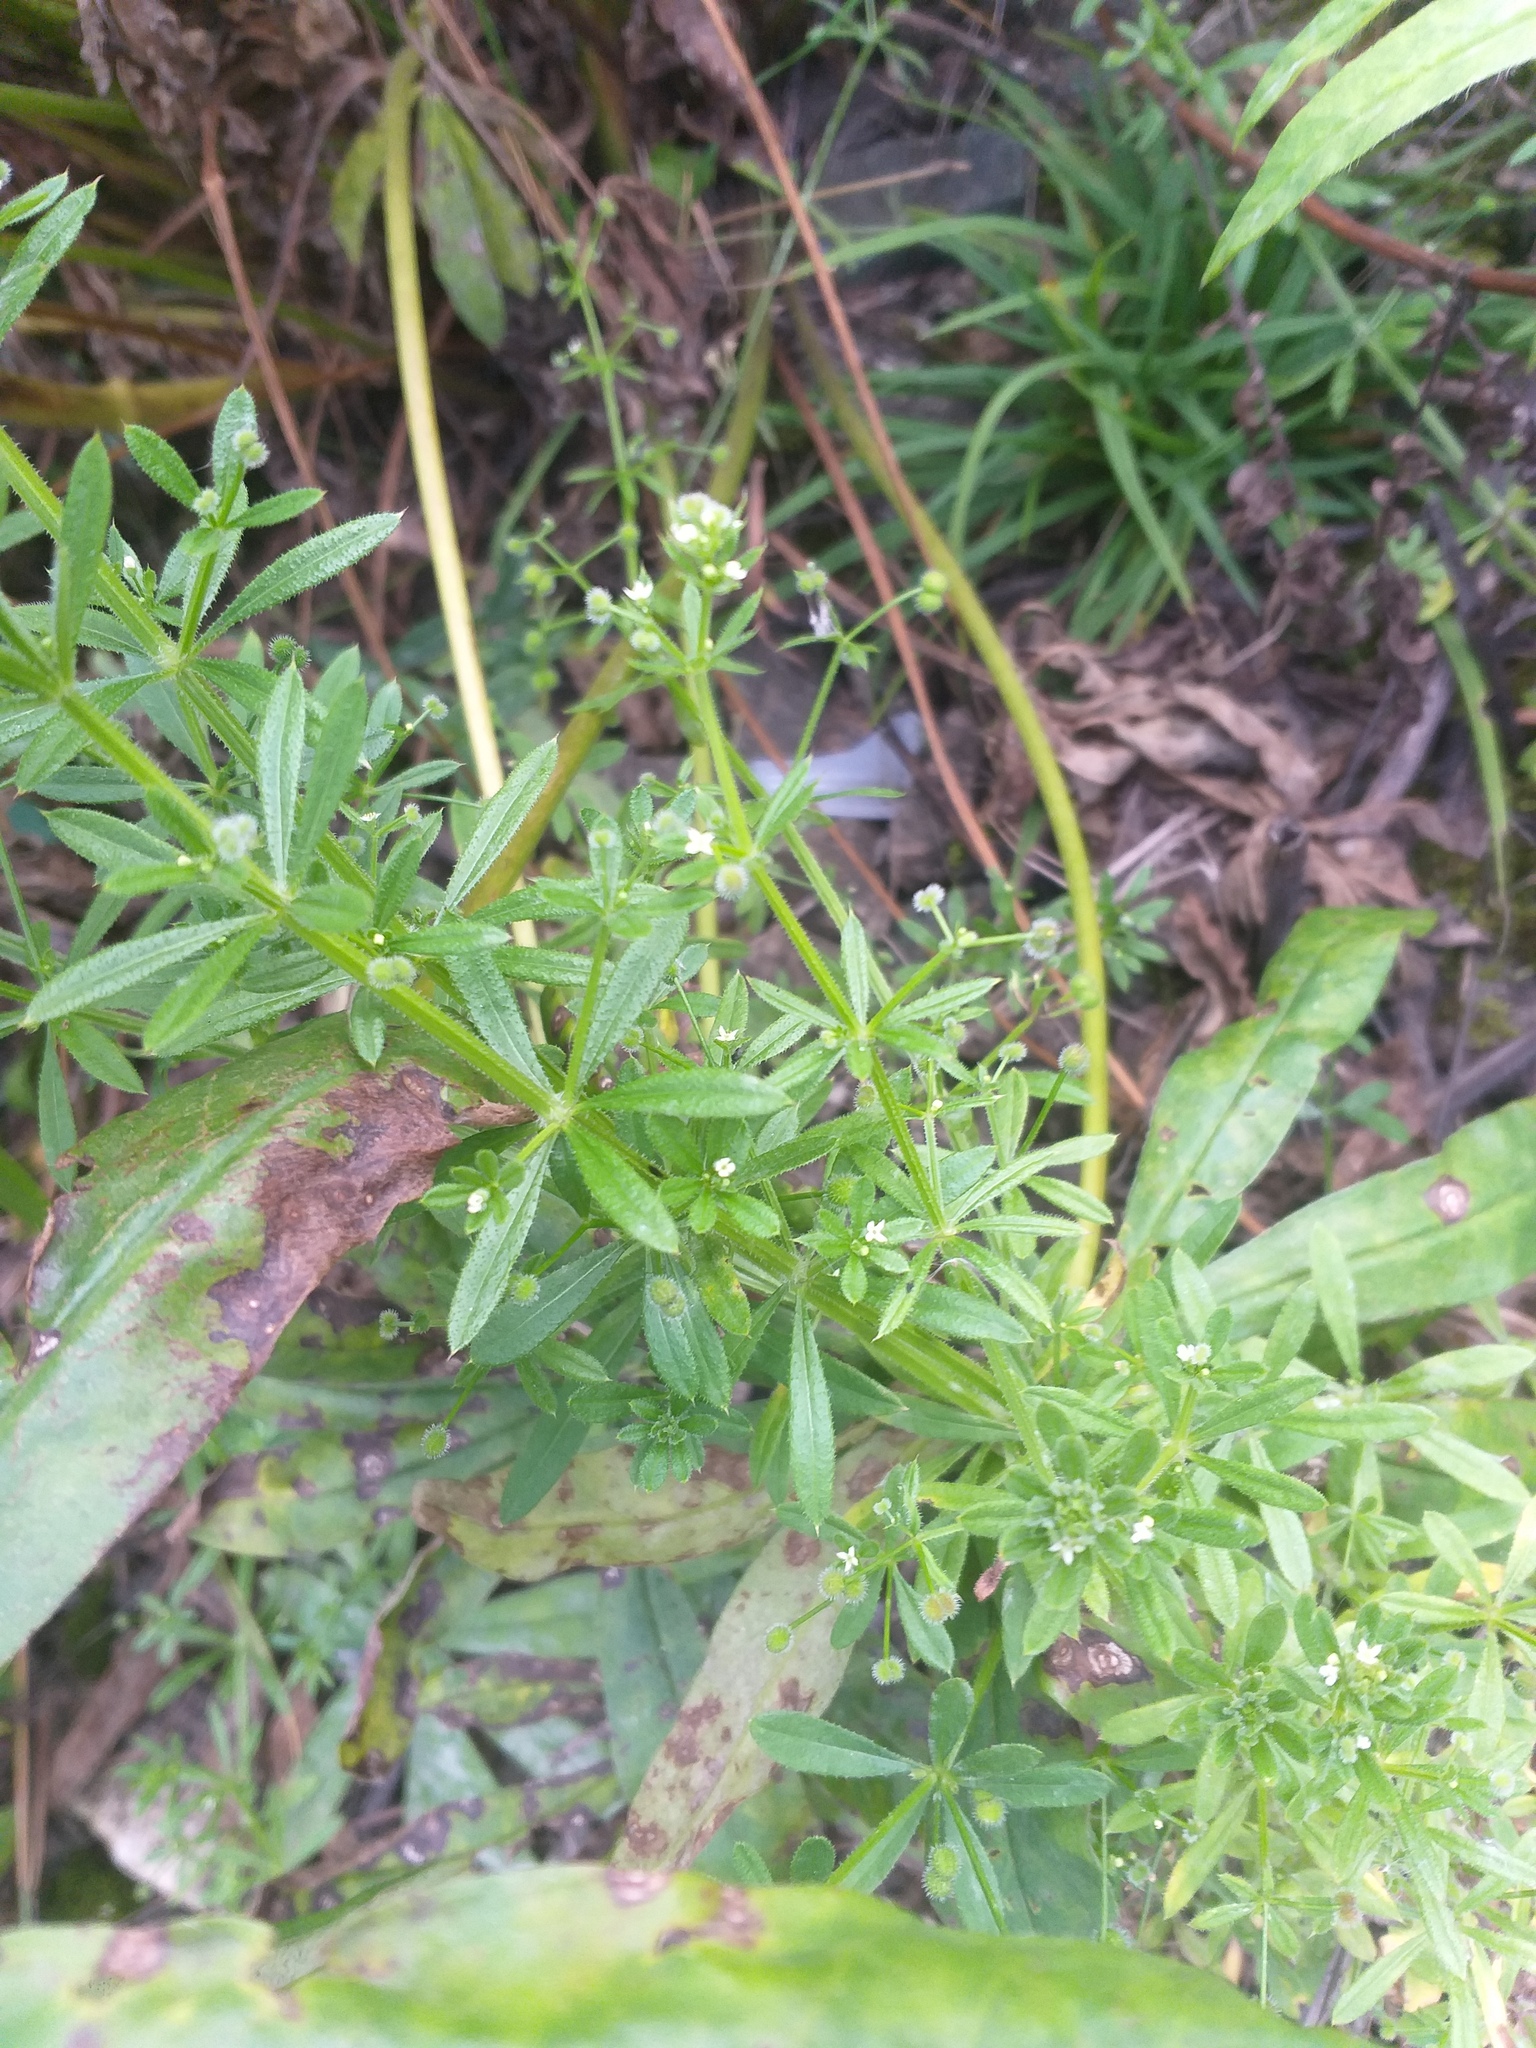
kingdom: Plantae
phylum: Tracheophyta
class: Magnoliopsida
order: Gentianales
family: Rubiaceae
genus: Galium
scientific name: Galium aparine
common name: Cleavers
